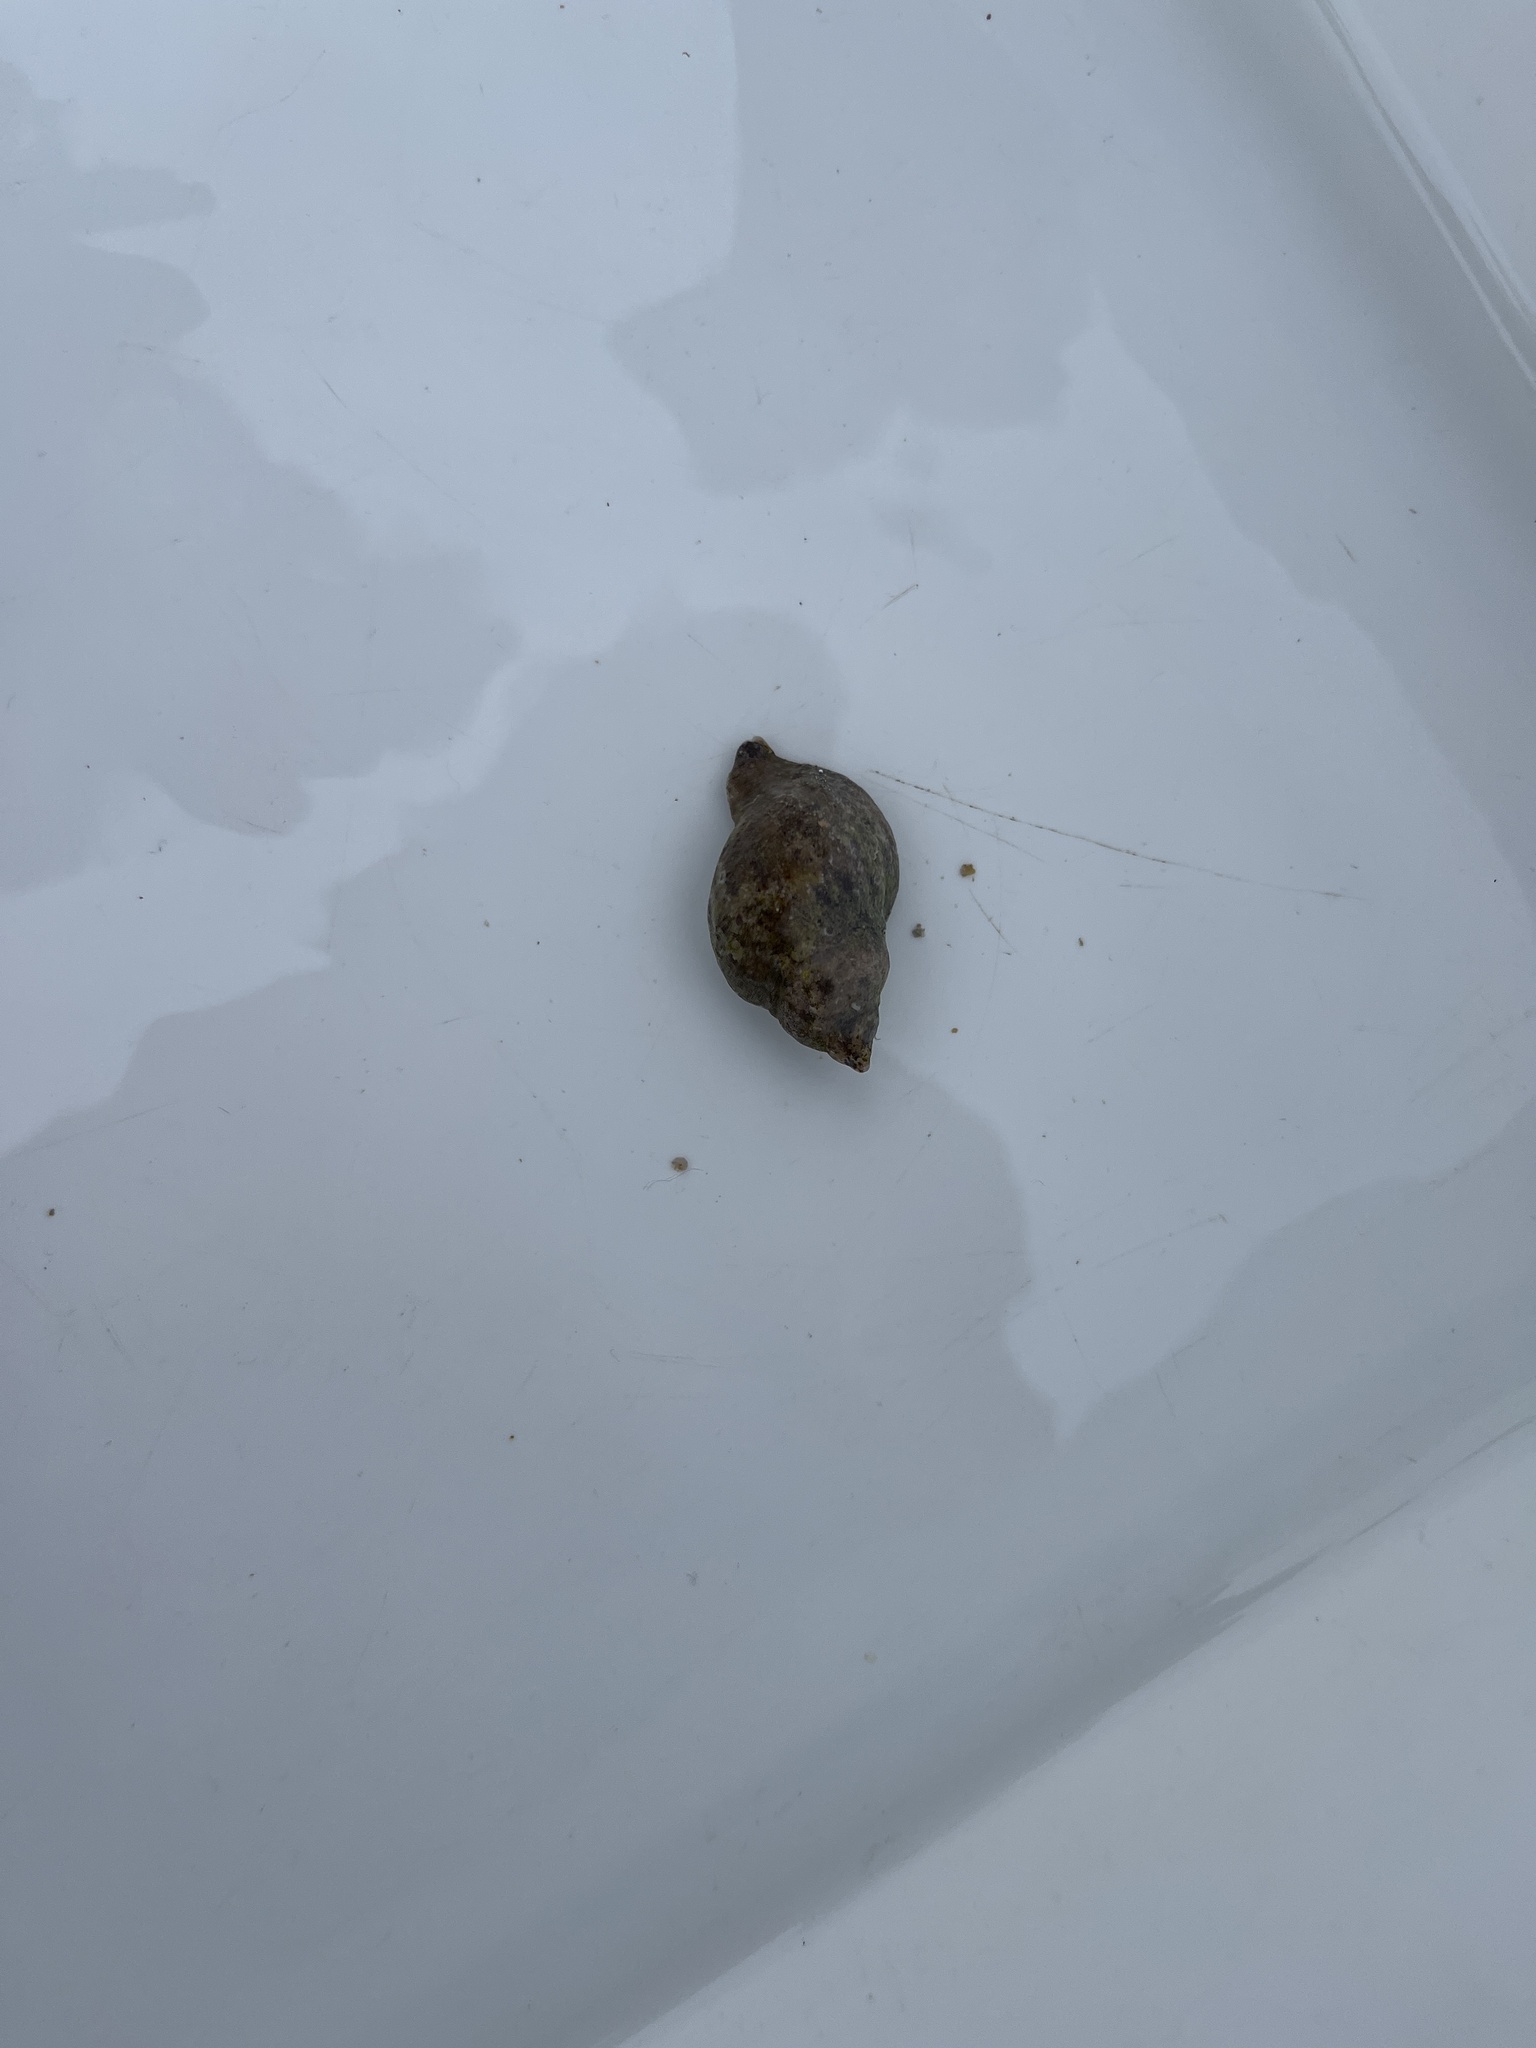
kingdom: Animalia
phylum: Mollusca
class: Gastropoda
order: Neogastropoda
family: Muricidae
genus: Nucella
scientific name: Nucella lapillus
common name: Dog whelk
